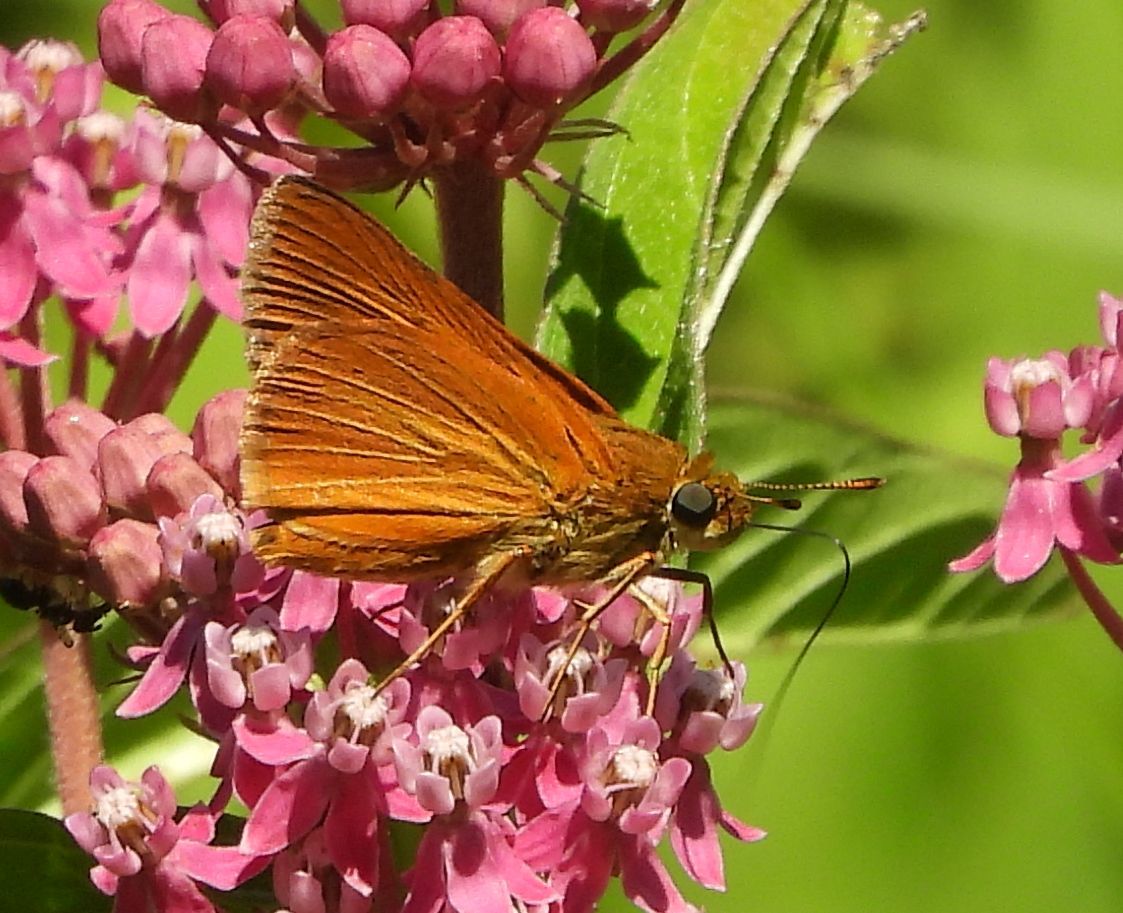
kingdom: Animalia
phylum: Arthropoda
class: Insecta
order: Lepidoptera
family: Hesperiidae
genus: Euphyes
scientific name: Euphyes dion
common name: Dion skipper
